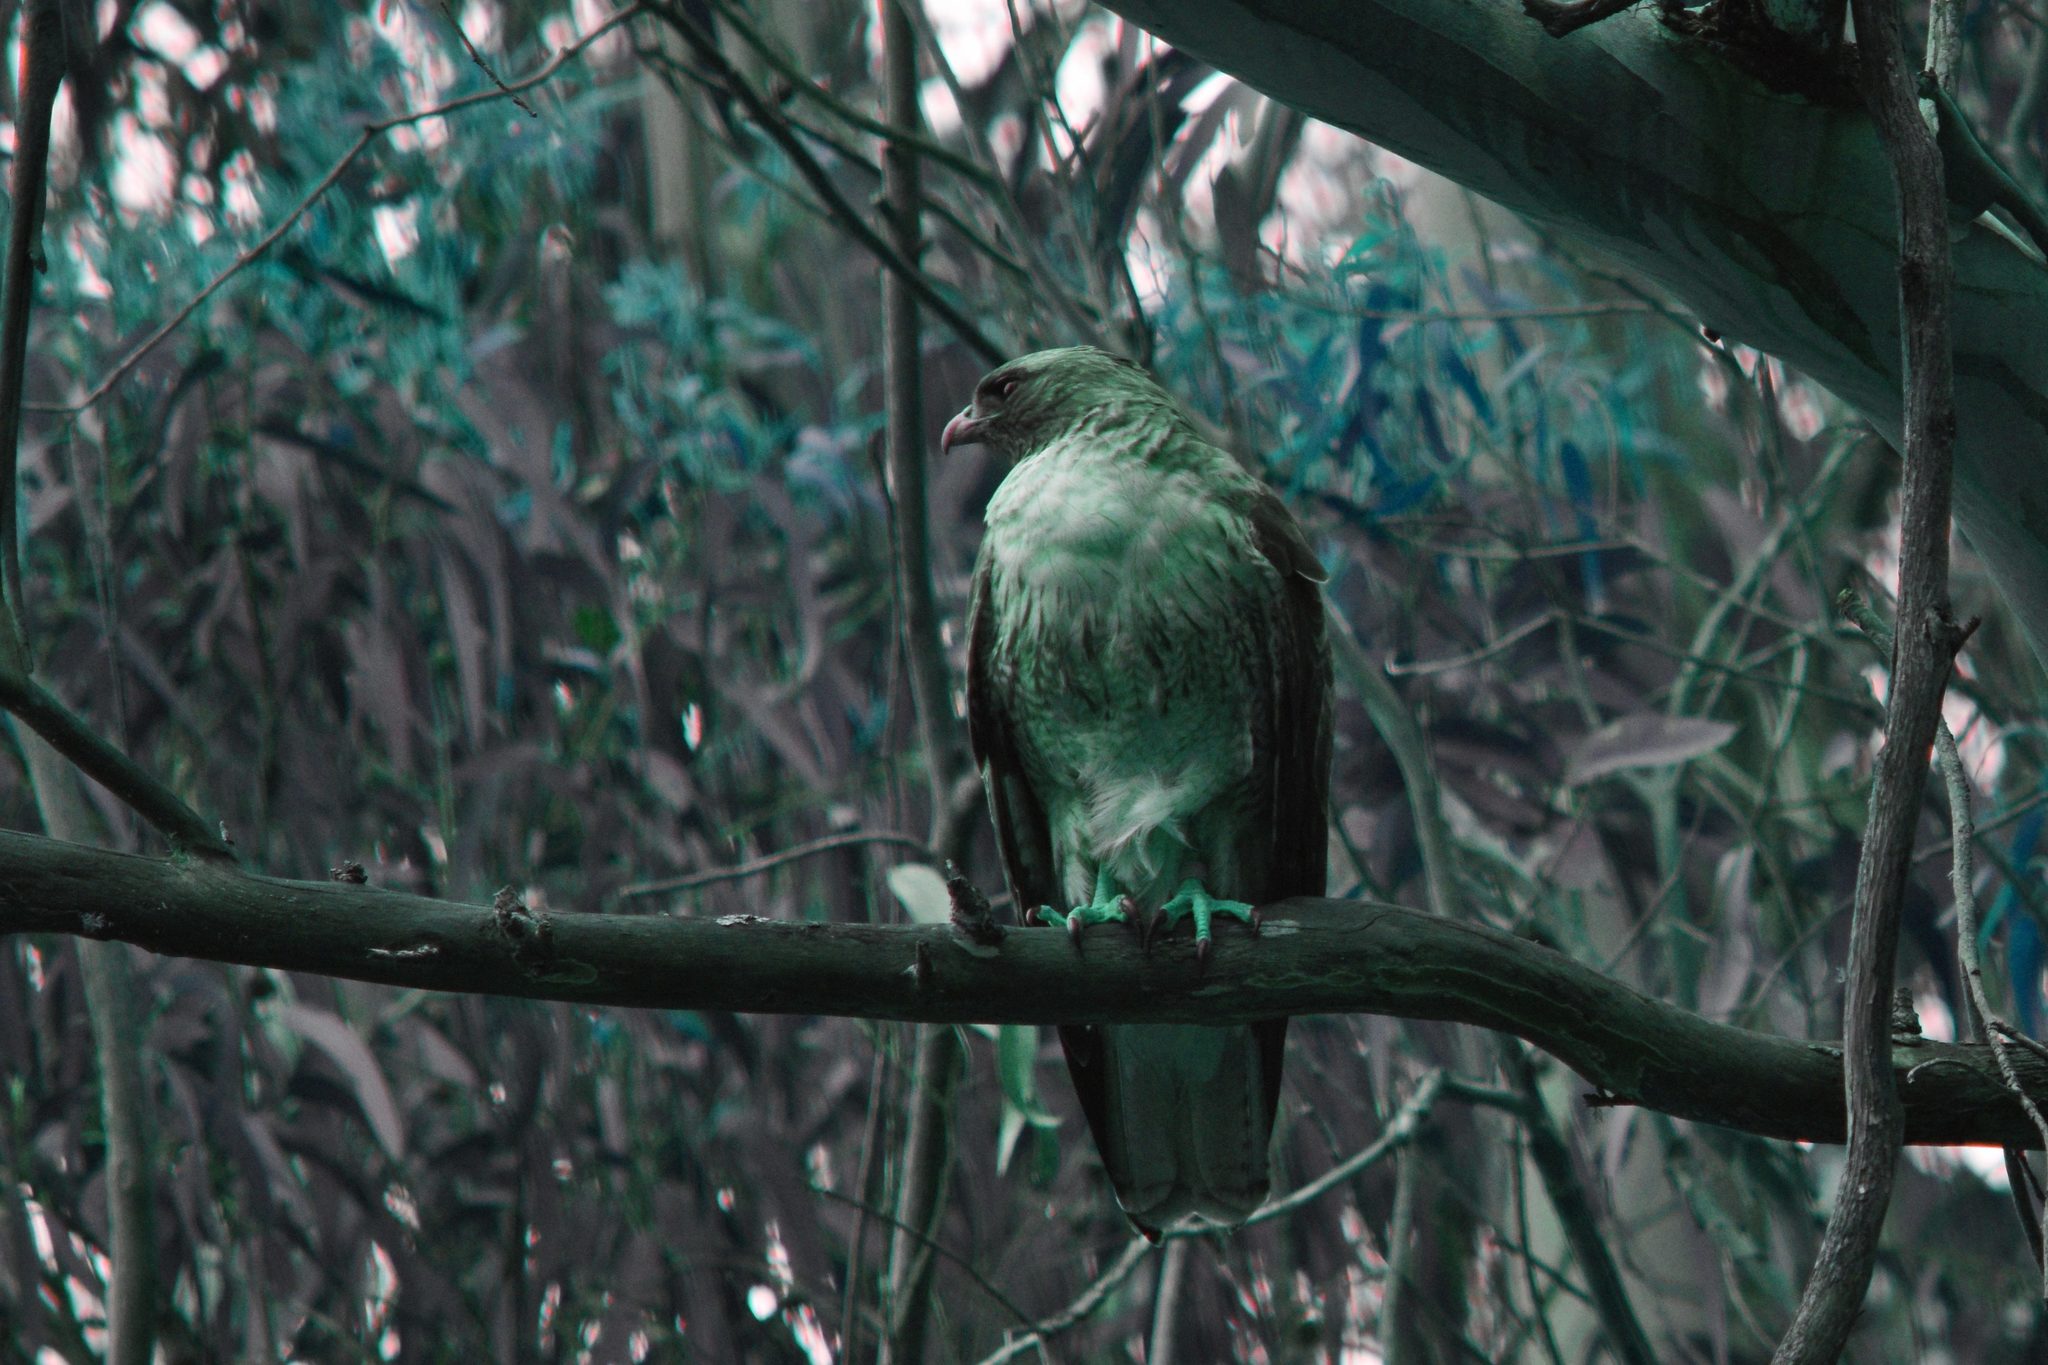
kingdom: Animalia
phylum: Chordata
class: Aves
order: Accipitriformes
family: Accipitridae
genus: Buteo
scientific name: Buteo jamaicensis
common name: Red-tailed hawk
